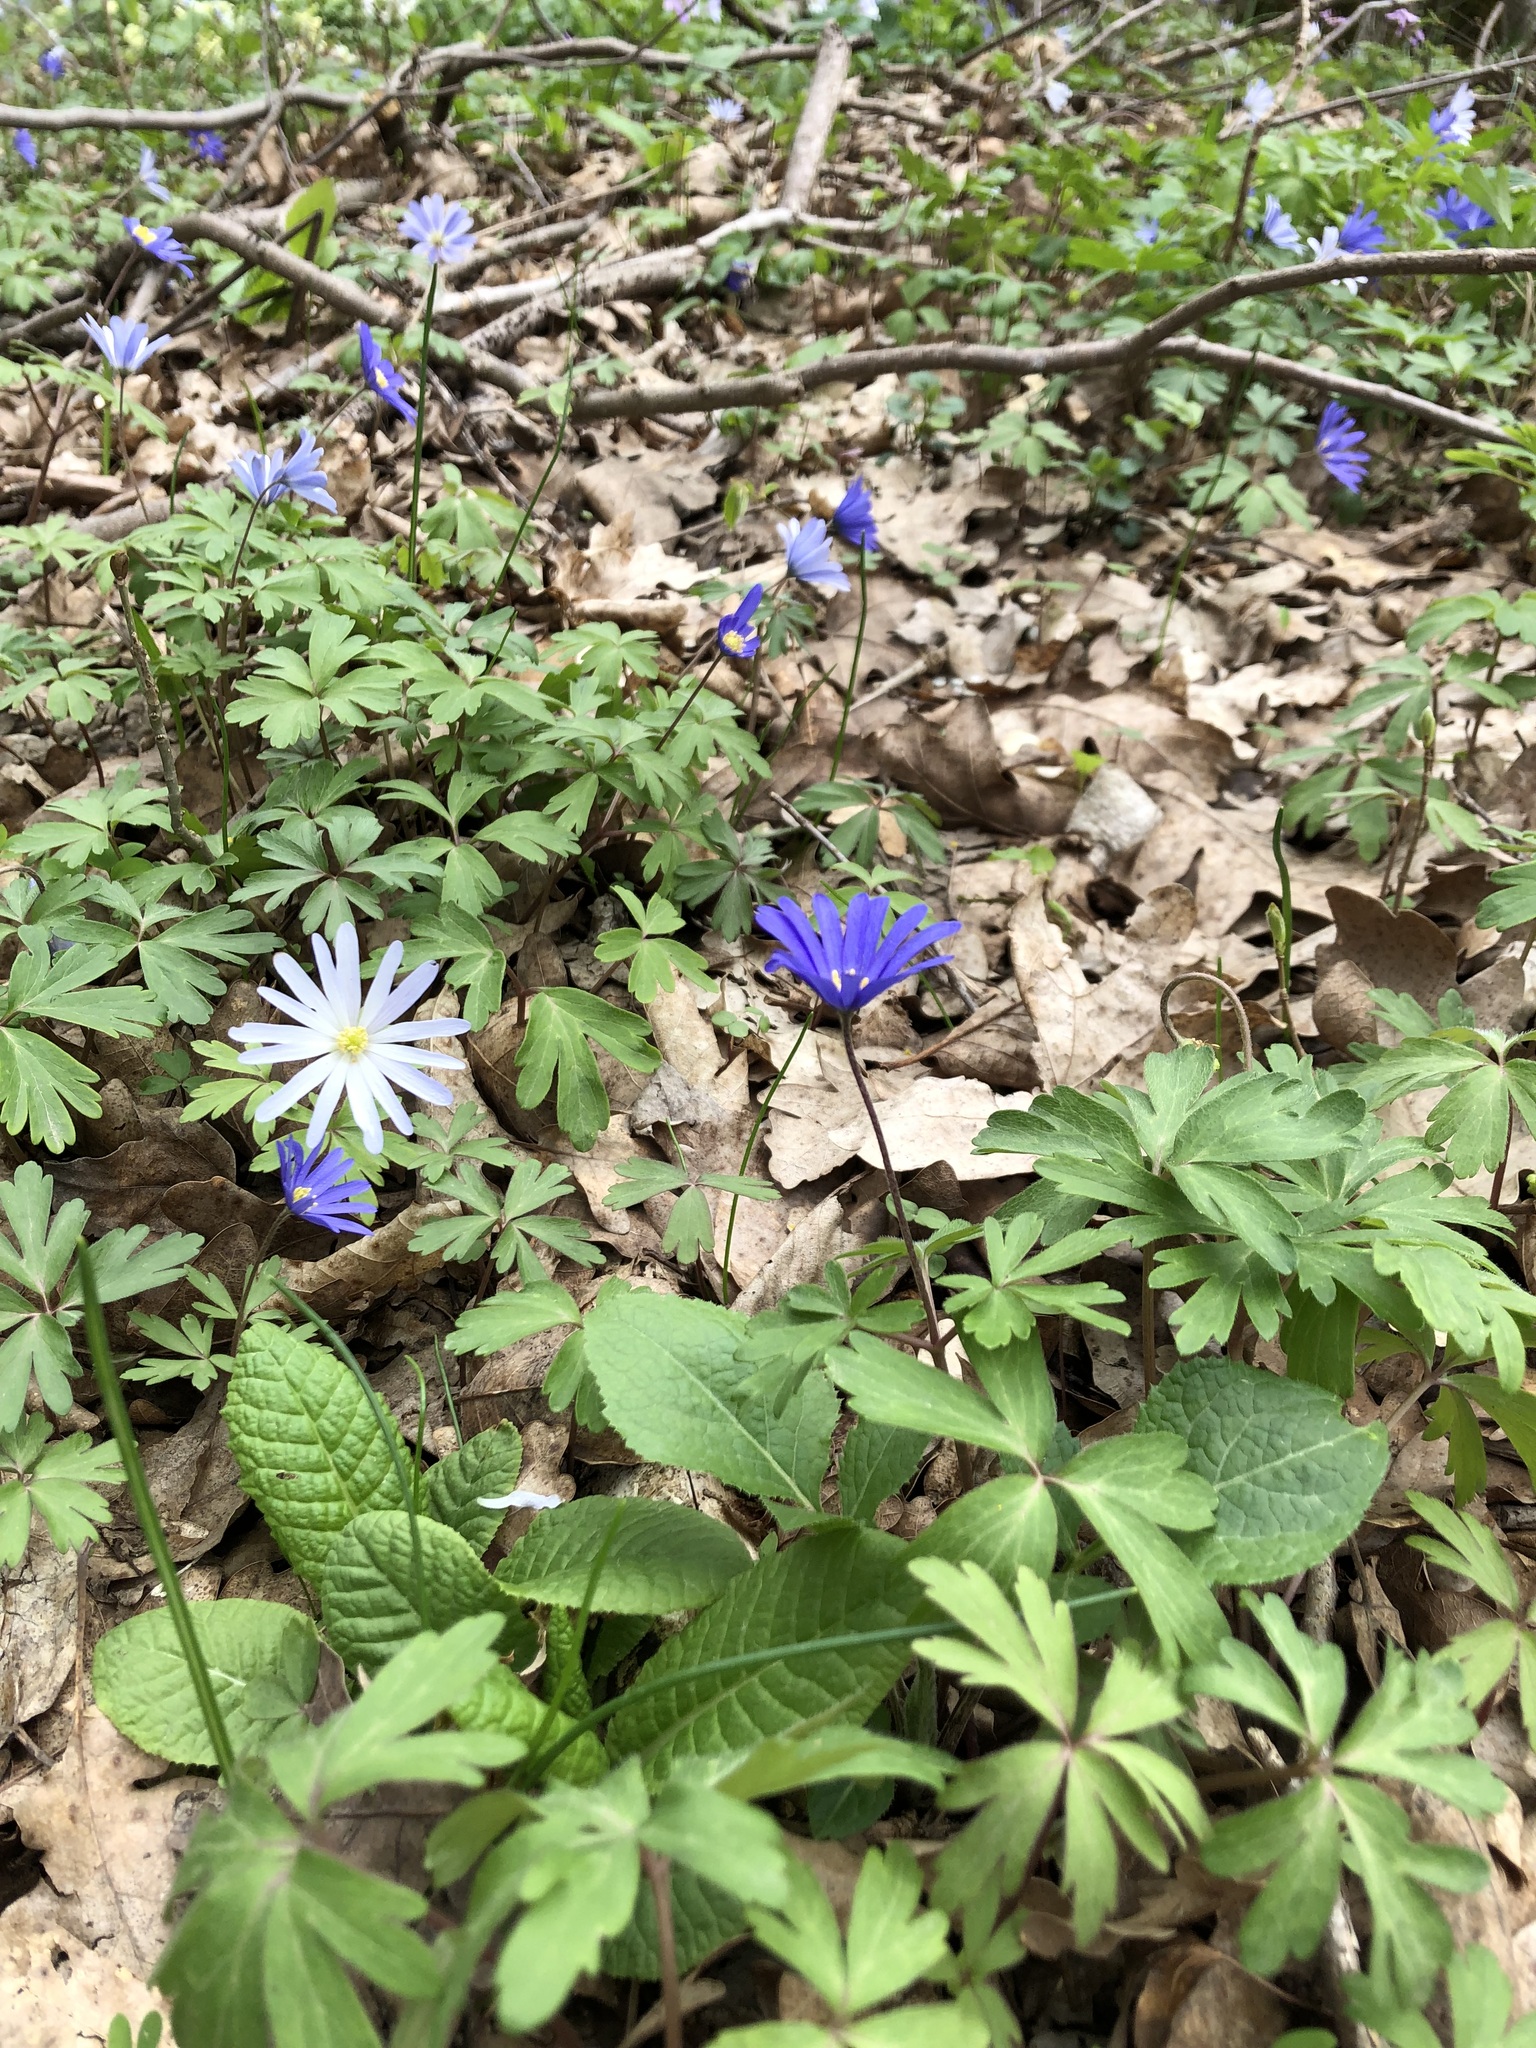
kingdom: Plantae
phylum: Tracheophyta
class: Magnoliopsida
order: Ranunculales
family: Ranunculaceae
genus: Anemone
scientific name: Anemone blanda
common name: Balkan anemone
